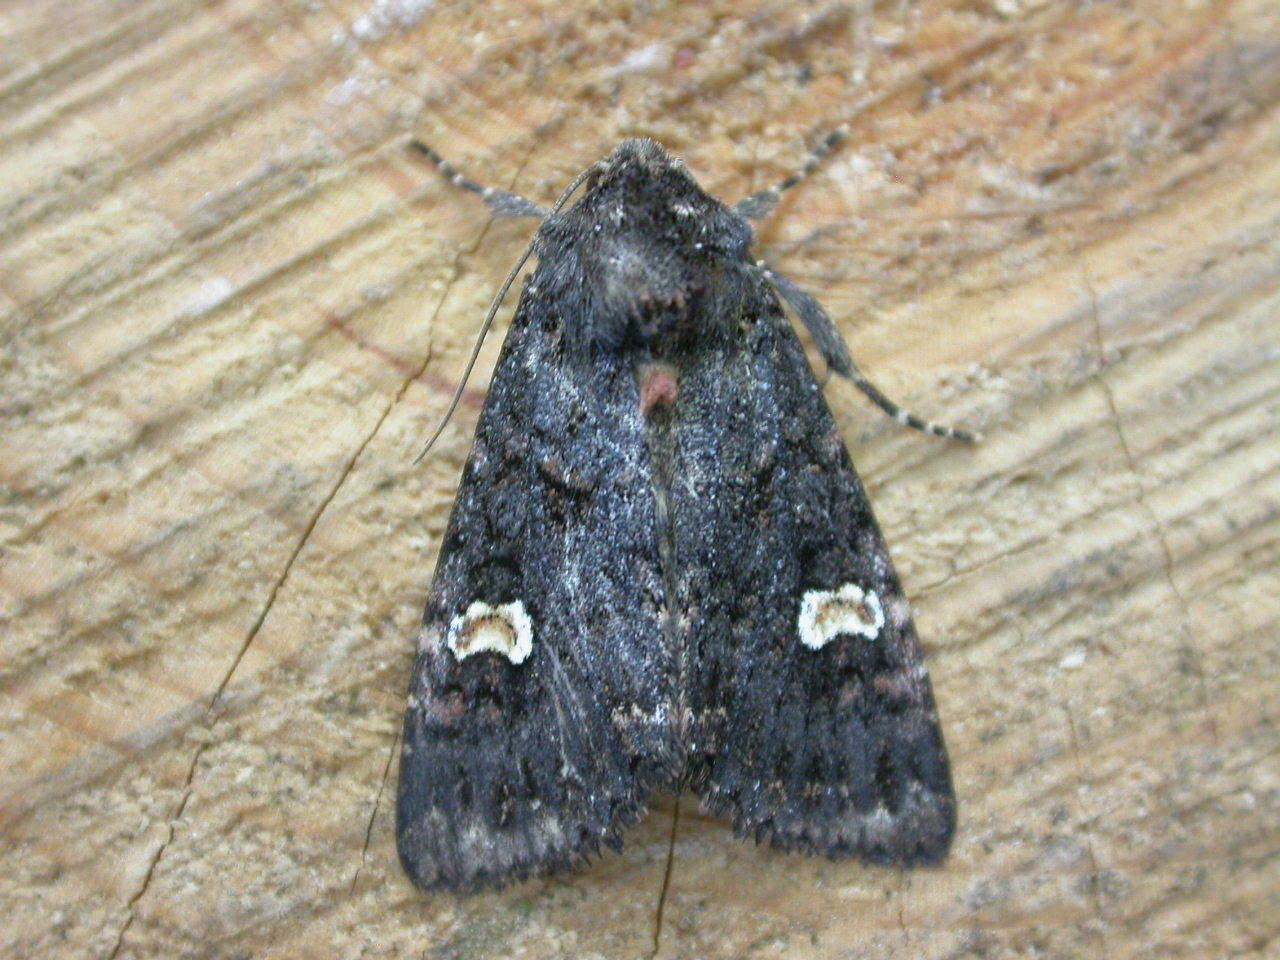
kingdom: Animalia
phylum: Arthropoda
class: Insecta
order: Lepidoptera
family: Noctuidae
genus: Melanchra
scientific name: Melanchra persicariae
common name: Dot moth
